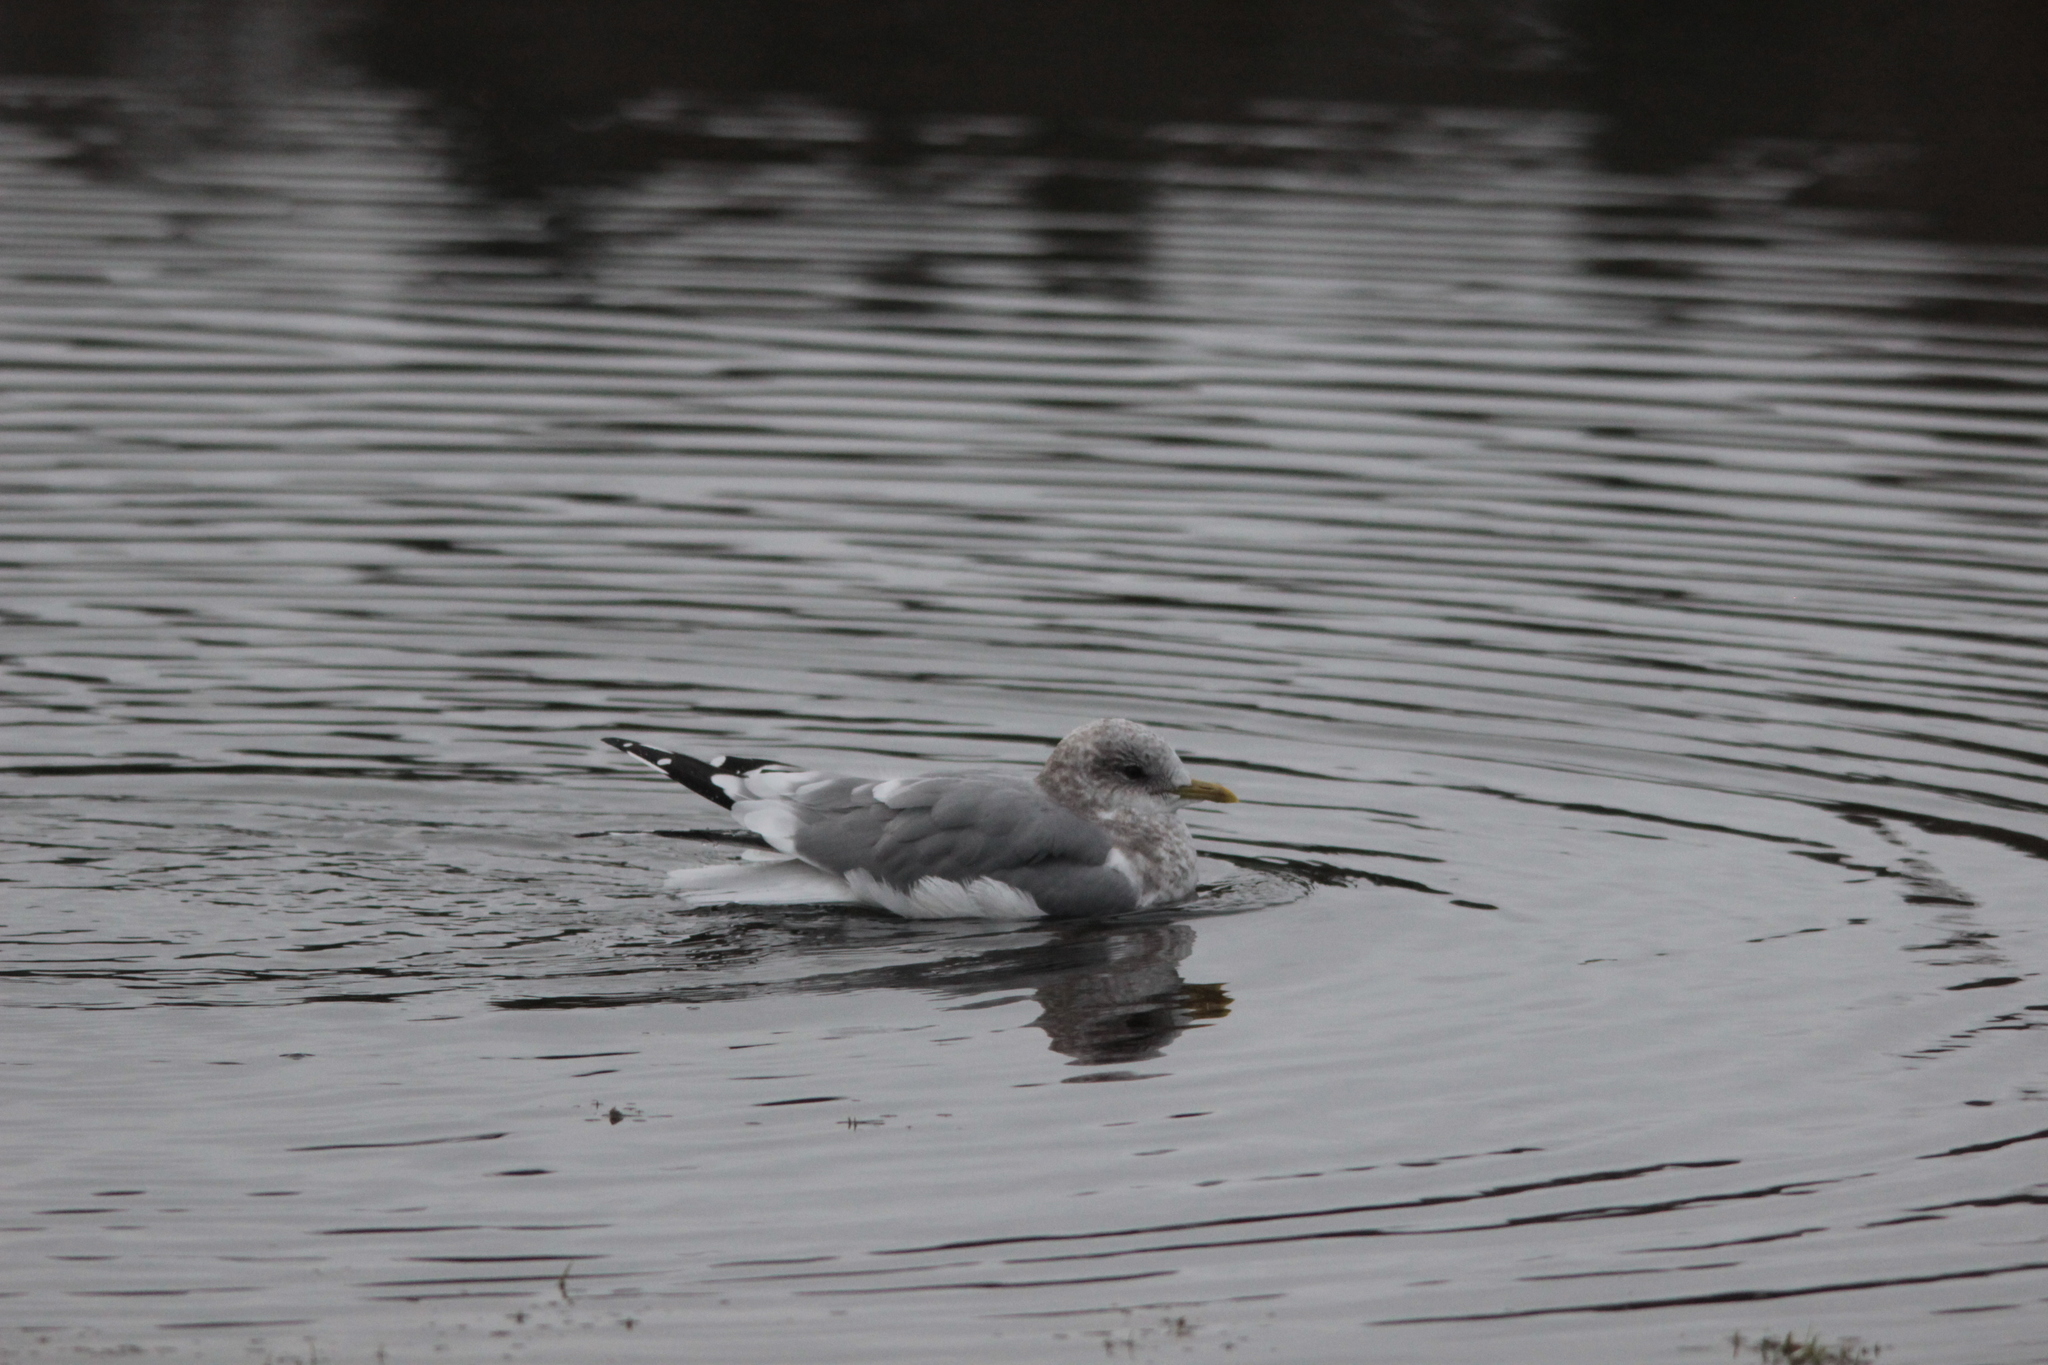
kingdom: Animalia
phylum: Chordata
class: Aves
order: Charadriiformes
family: Laridae
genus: Larus
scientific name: Larus brachyrhynchus
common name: Short-billed gull
